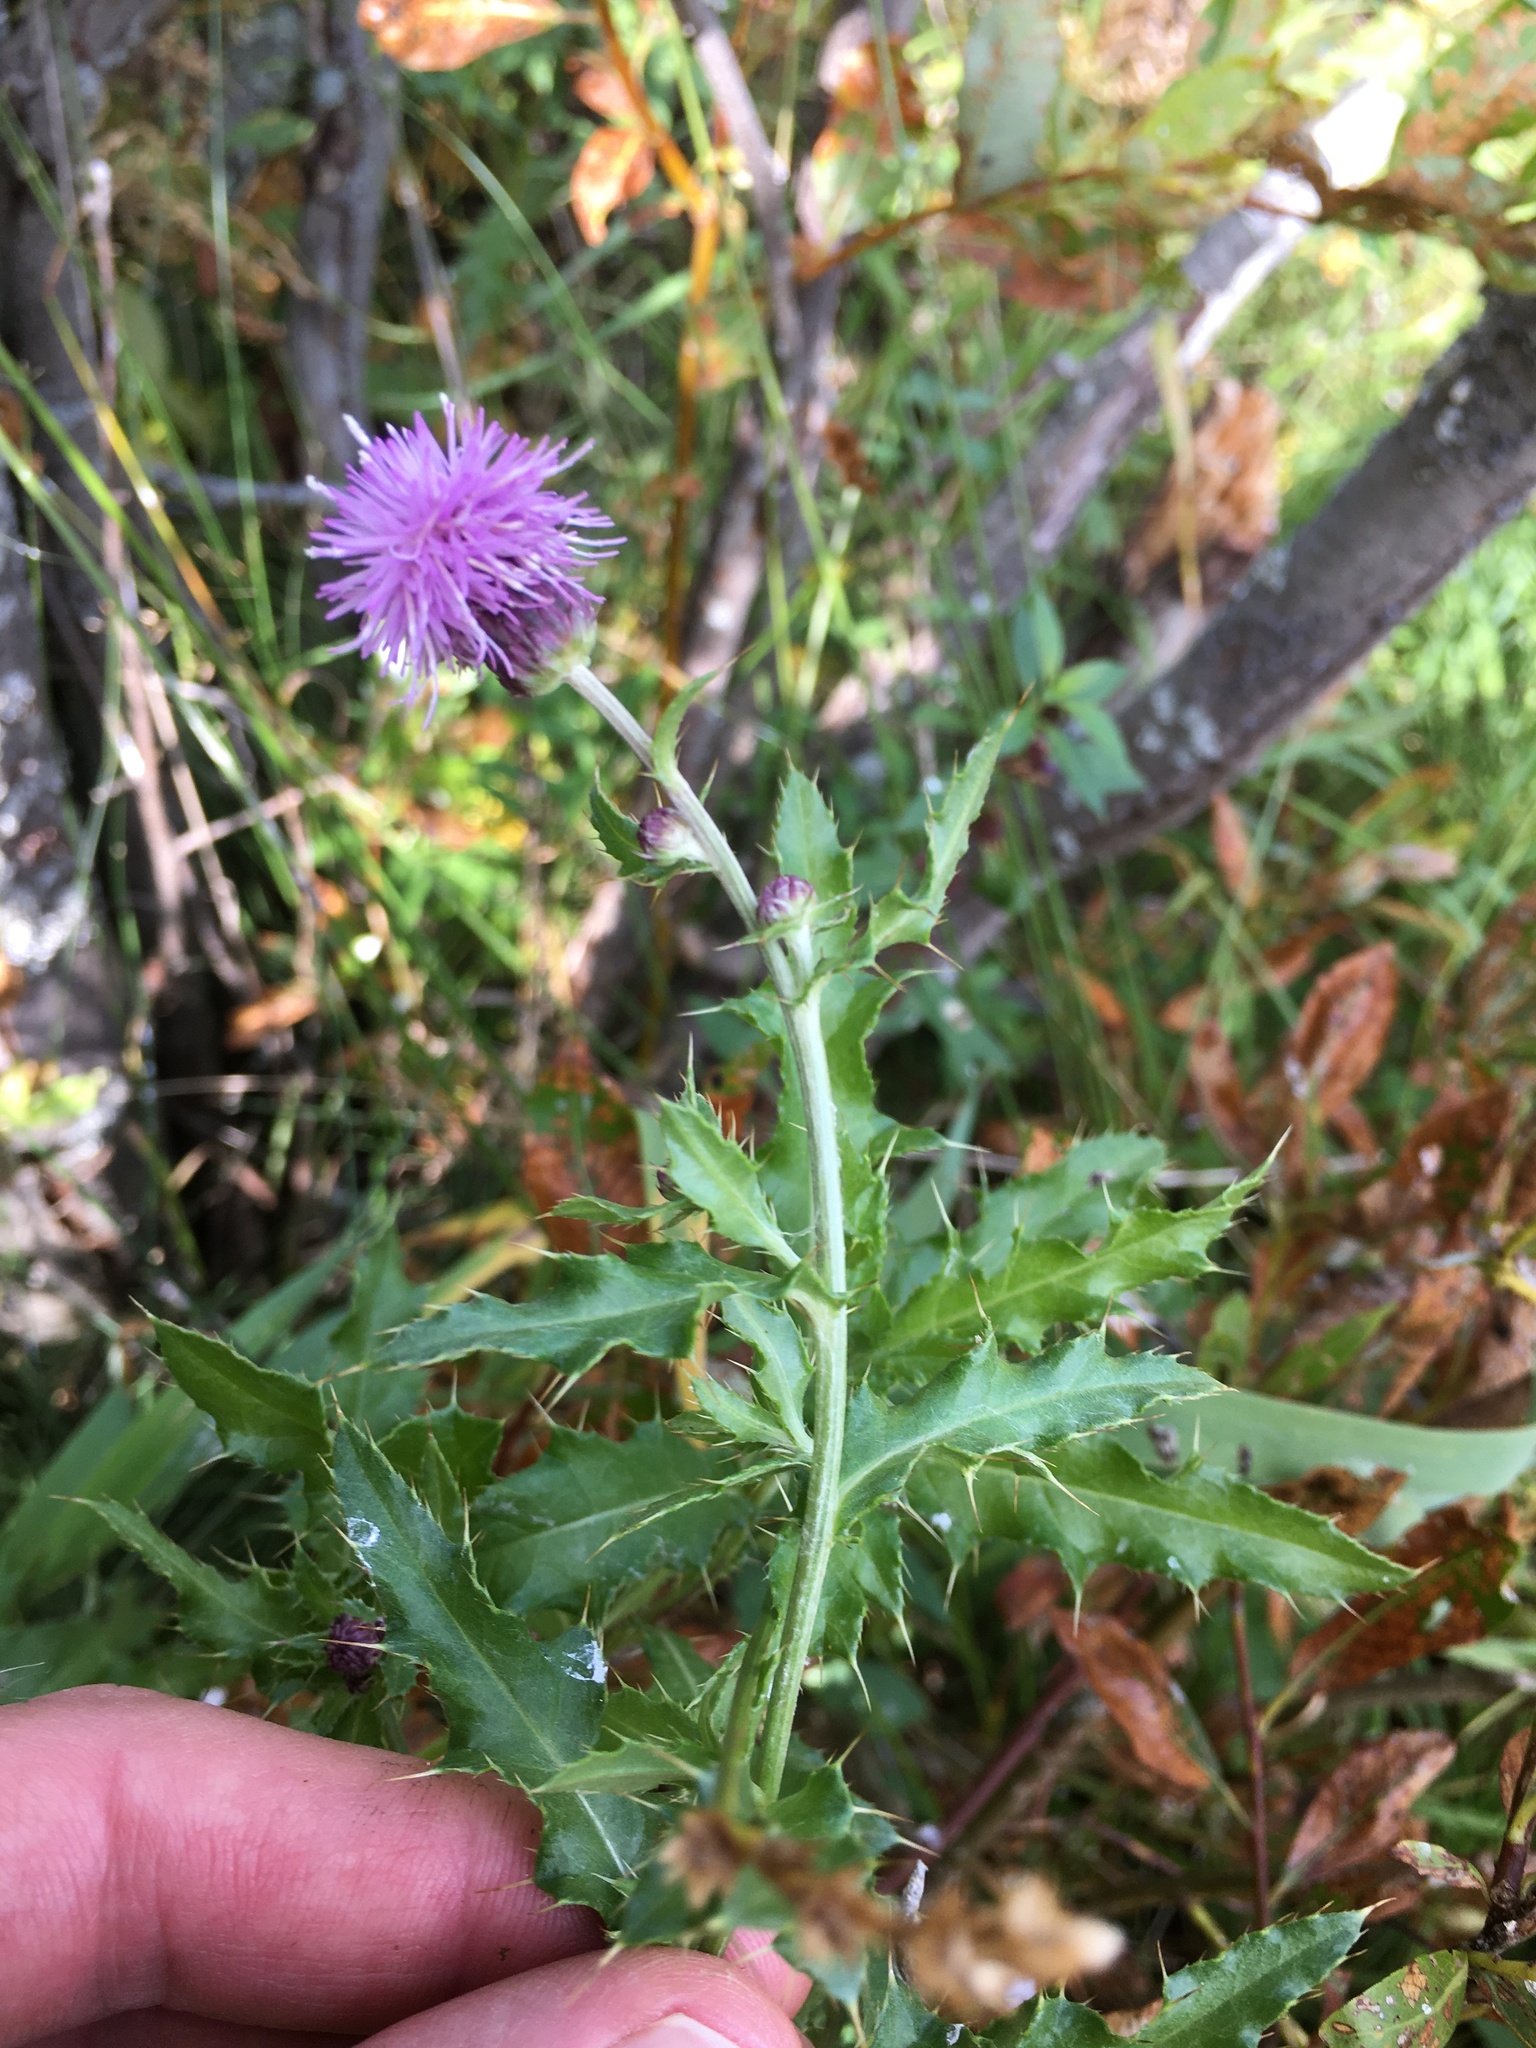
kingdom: Plantae
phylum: Tracheophyta
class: Magnoliopsida
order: Asterales
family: Asteraceae
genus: Cirsium
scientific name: Cirsium arvense
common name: Creeping thistle
